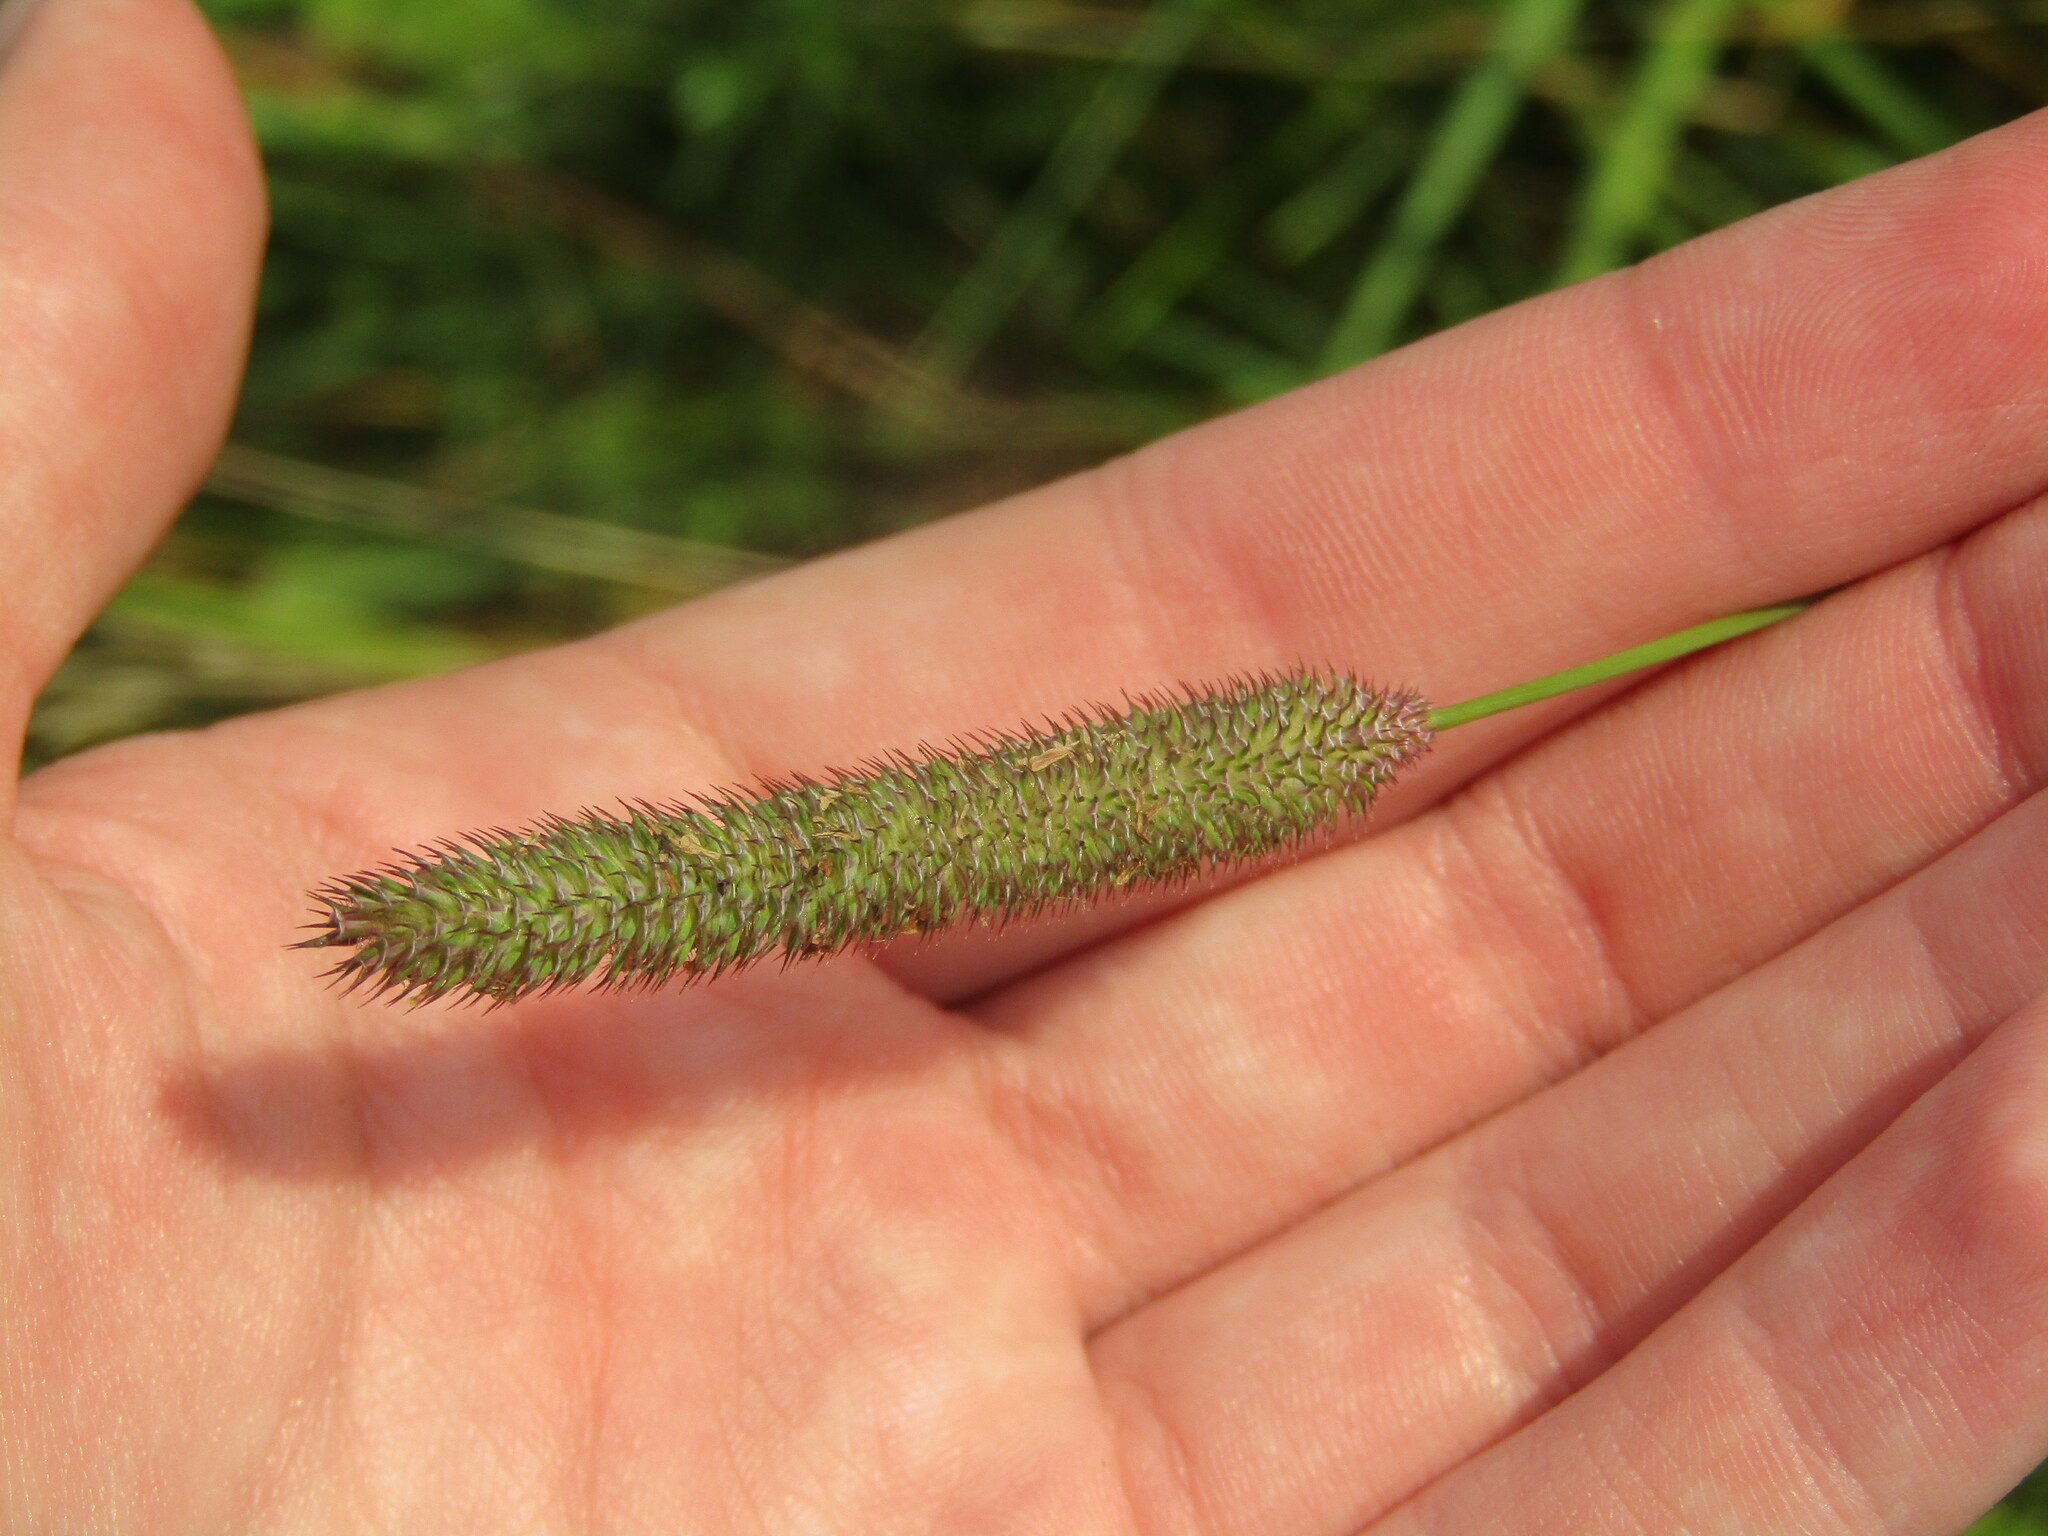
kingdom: Plantae
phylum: Tracheophyta
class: Liliopsida
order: Poales
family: Poaceae
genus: Phleum
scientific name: Phleum pratense
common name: Timothy grass
